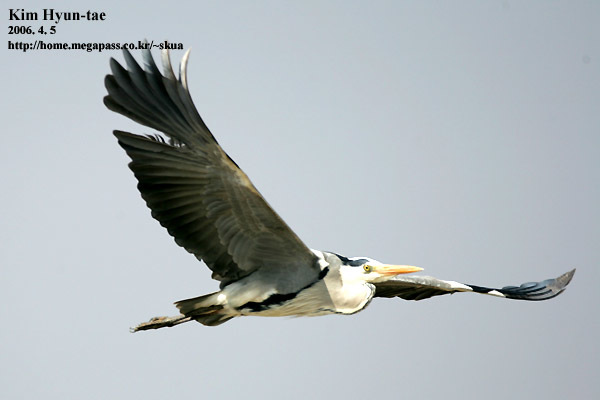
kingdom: Animalia
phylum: Chordata
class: Aves
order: Pelecaniformes
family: Ardeidae
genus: Ardea
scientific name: Ardea cinerea
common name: Grey heron
